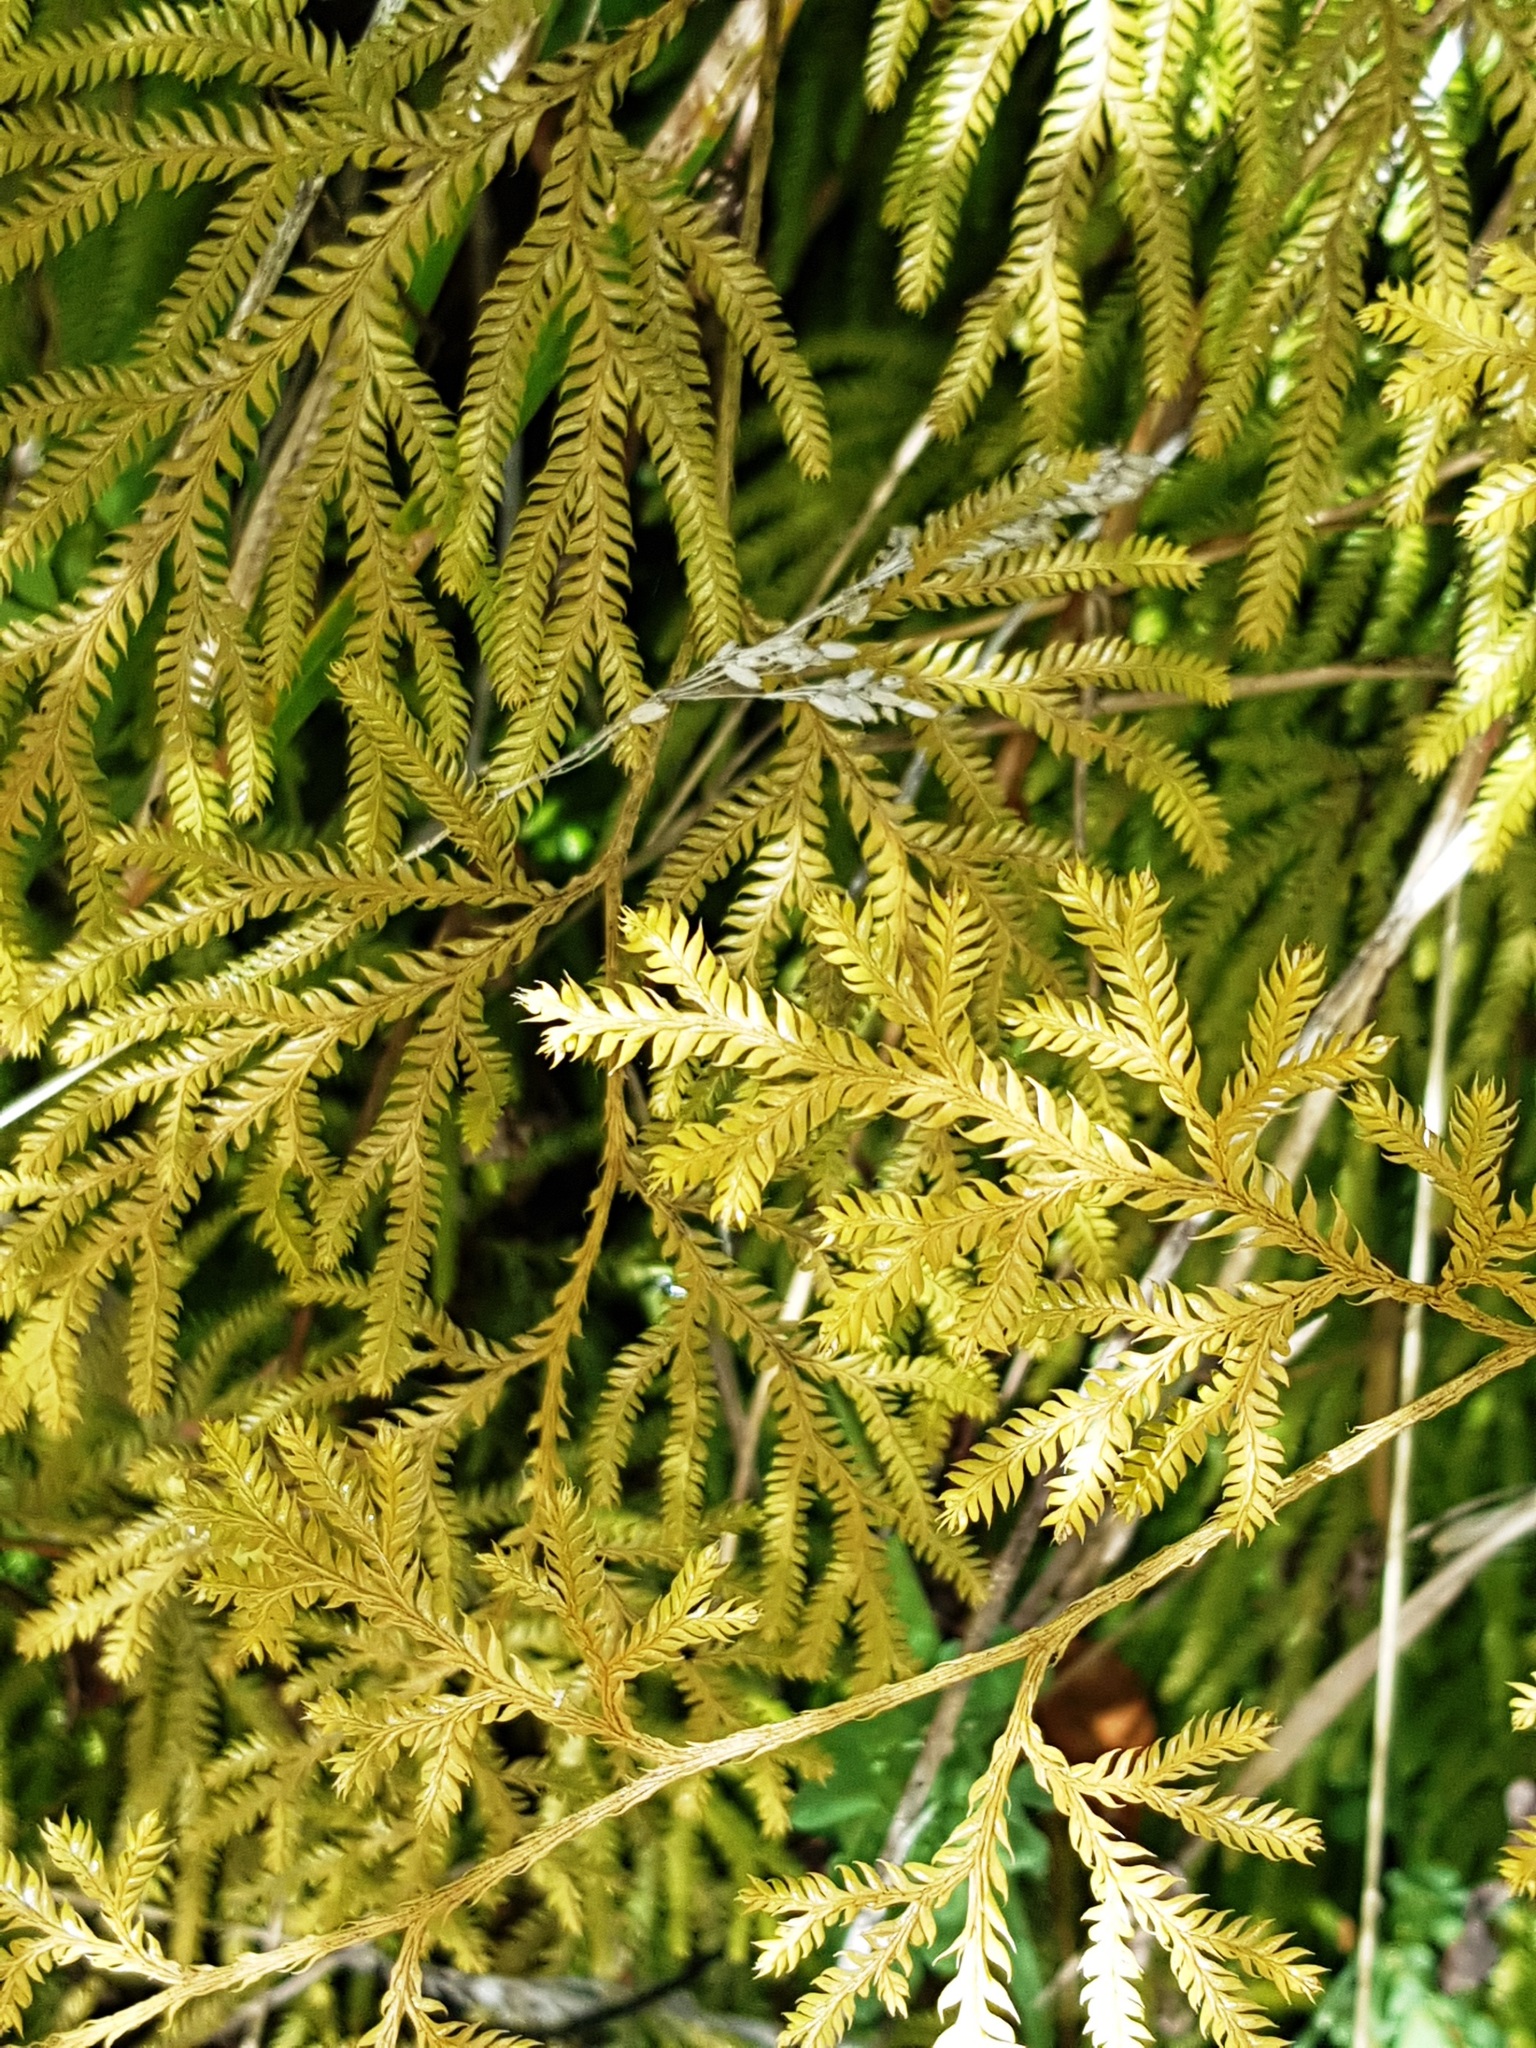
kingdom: Plantae
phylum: Tracheophyta
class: Lycopodiopsida
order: Lycopodiales
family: Lycopodiaceae
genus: Lycopodium
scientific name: Lycopodium volubile
